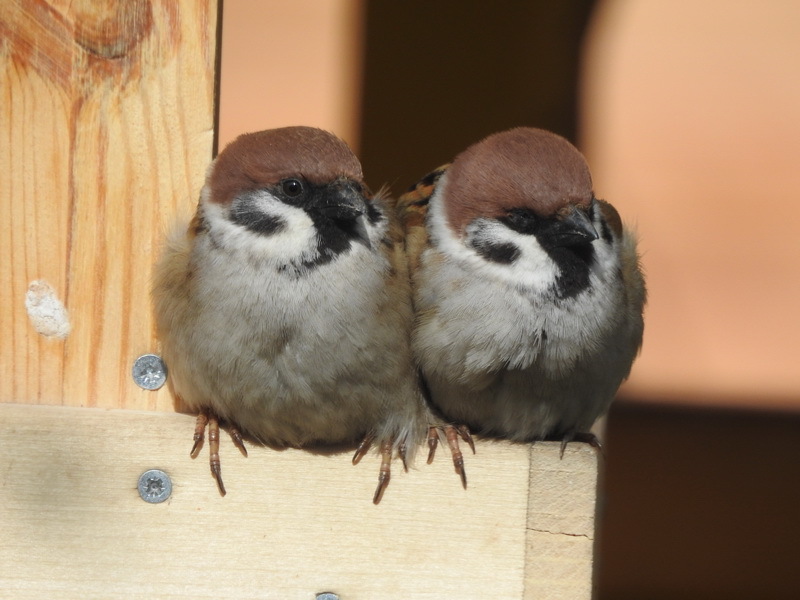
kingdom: Animalia
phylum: Chordata
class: Aves
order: Passeriformes
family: Passeridae
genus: Passer
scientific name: Passer montanus
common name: Eurasian tree sparrow
